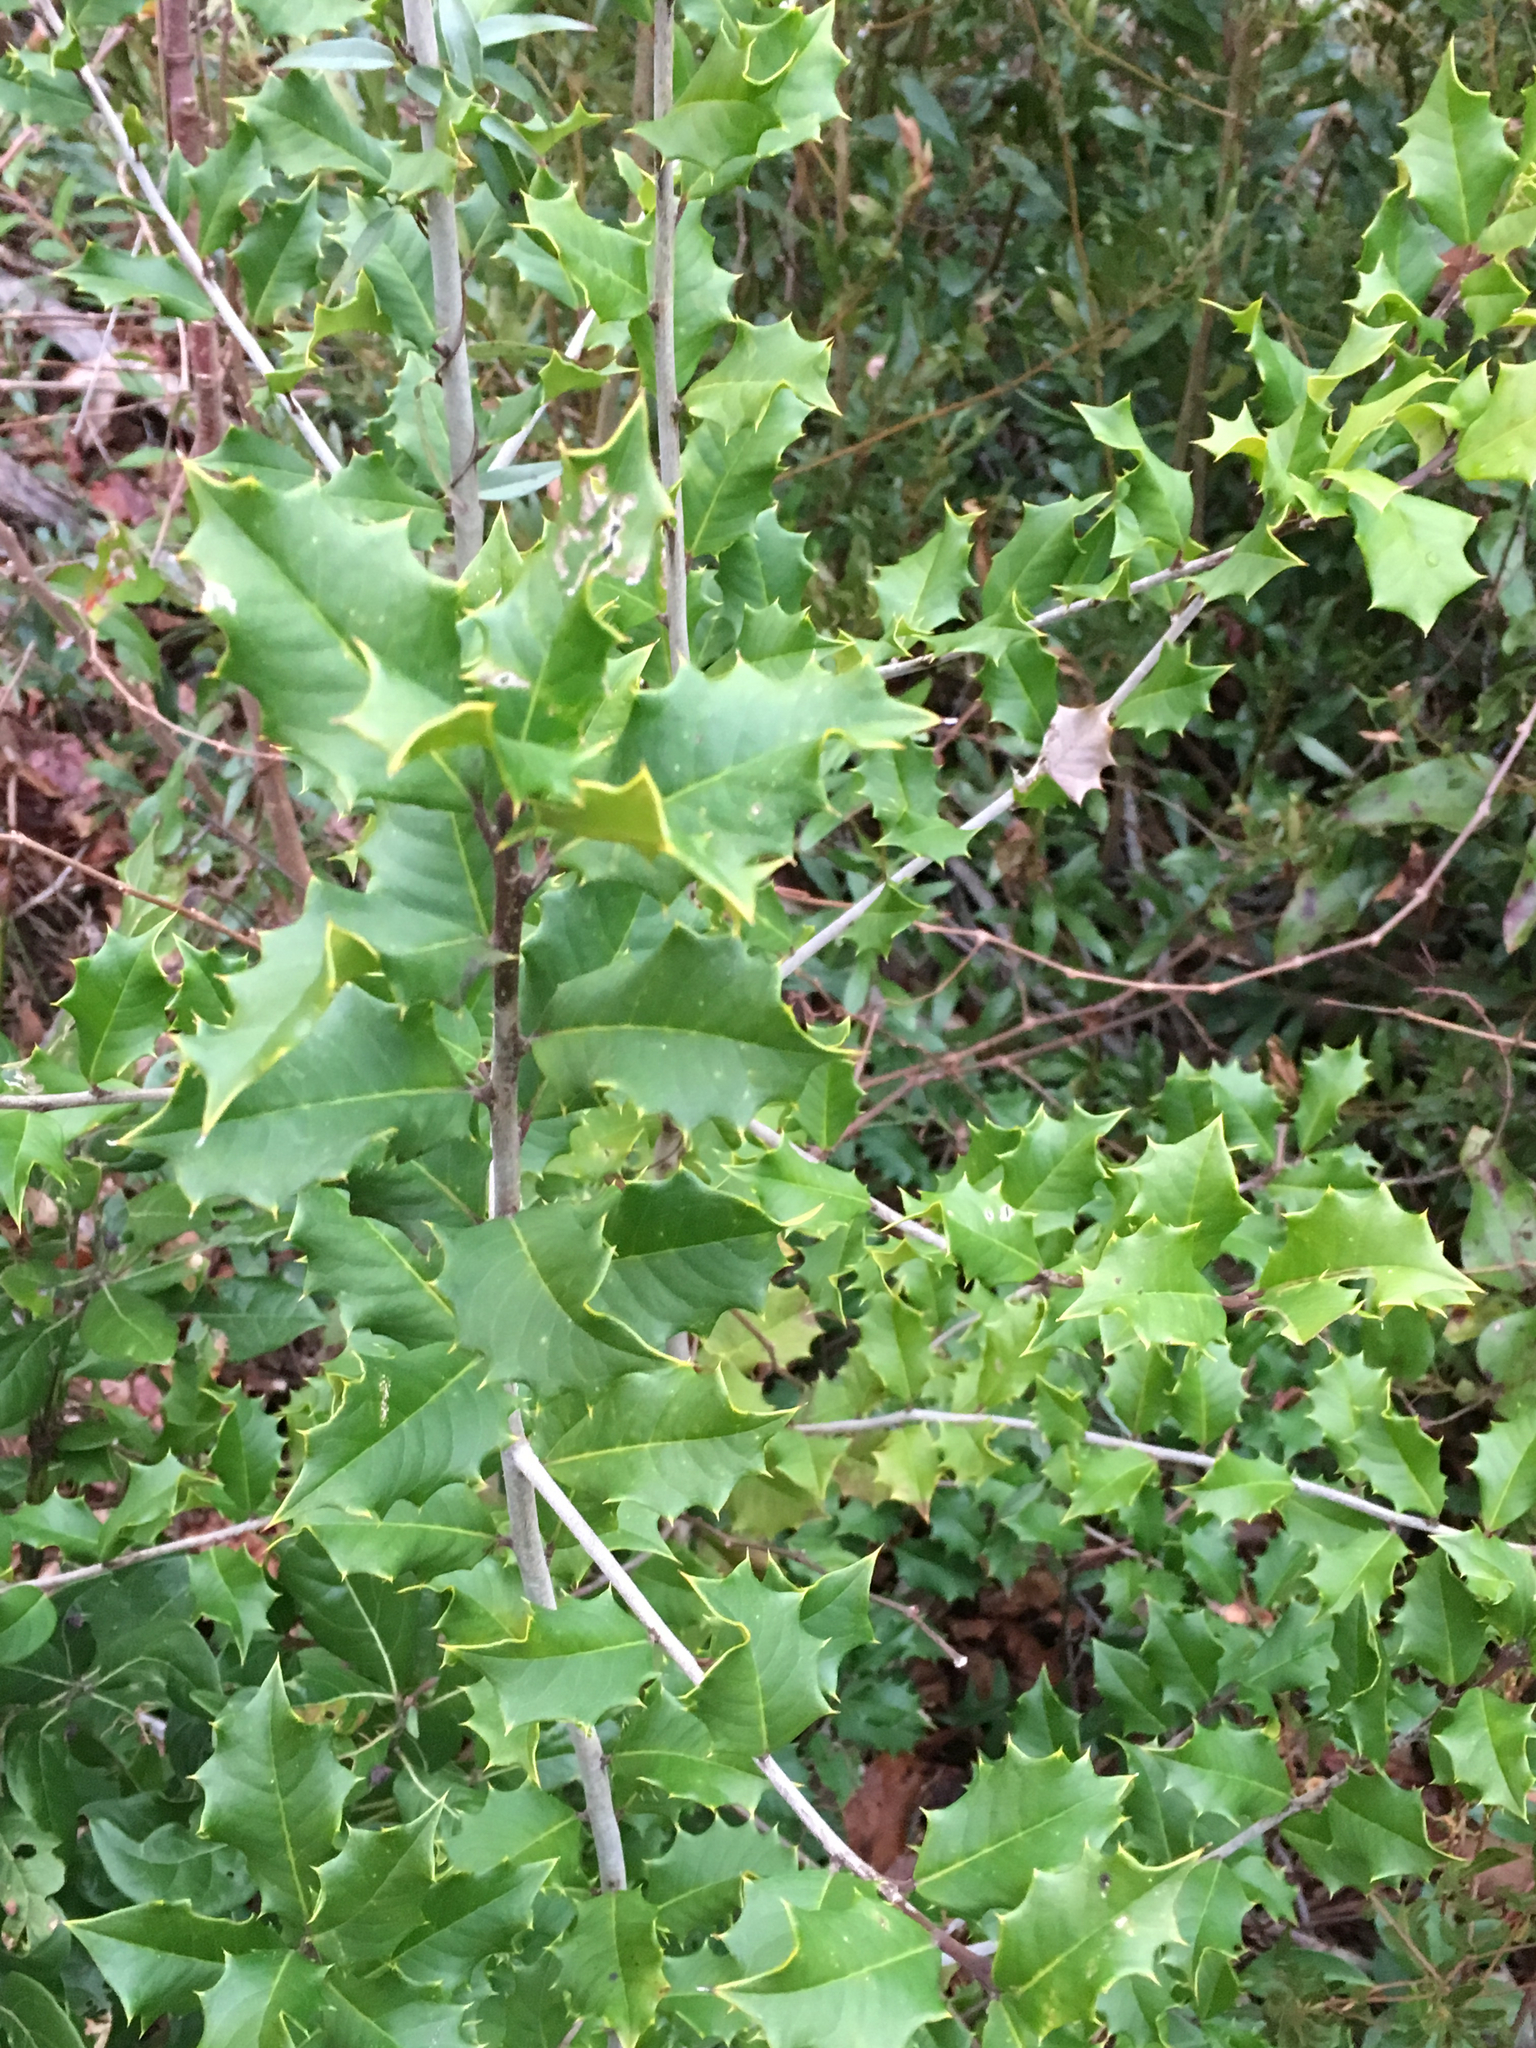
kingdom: Plantae
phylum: Tracheophyta
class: Magnoliopsida
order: Aquifoliales
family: Aquifoliaceae
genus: Ilex
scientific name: Ilex opaca
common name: American holly
